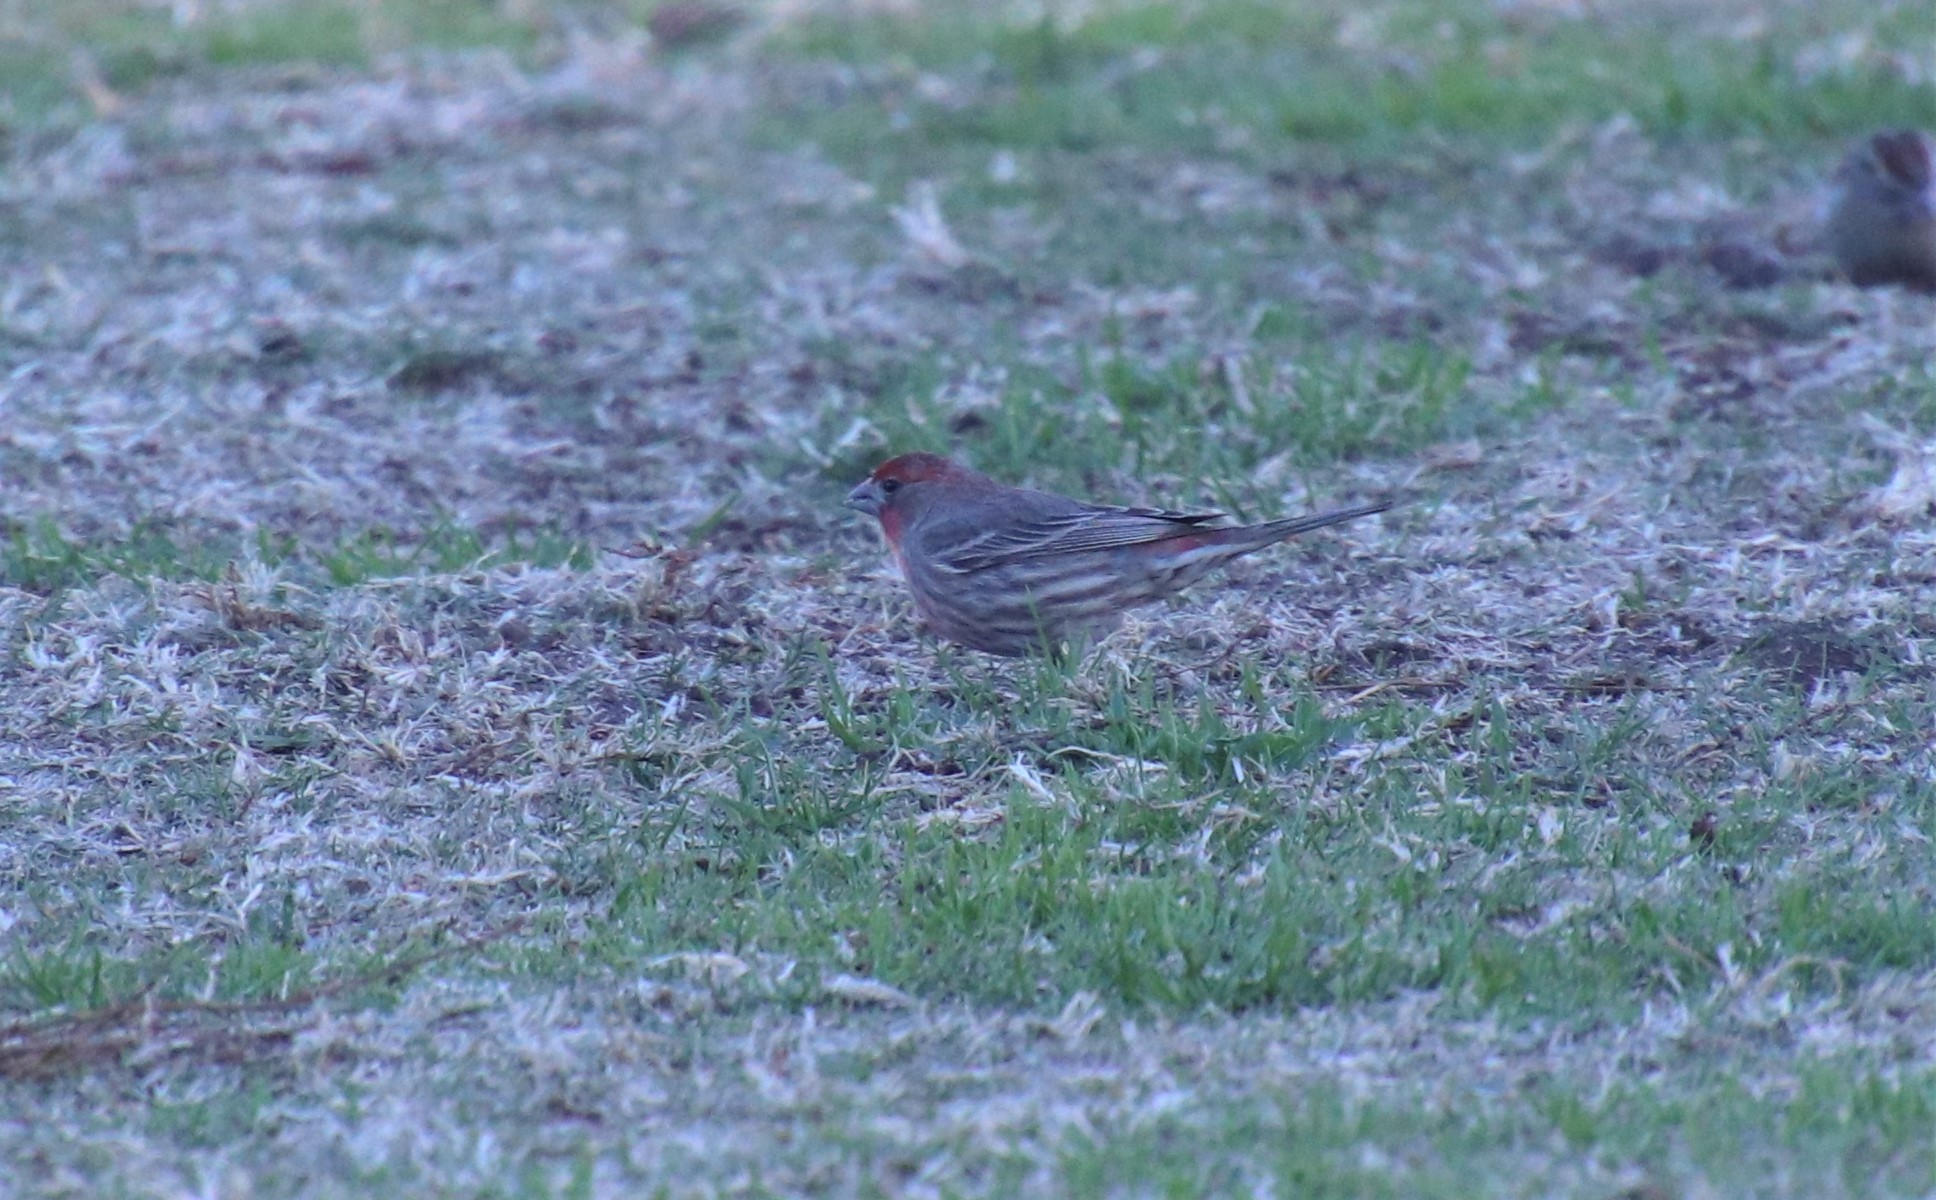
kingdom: Animalia
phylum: Chordata
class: Aves
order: Passeriformes
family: Fringillidae
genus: Haemorhous
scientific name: Haemorhous mexicanus
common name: House finch
